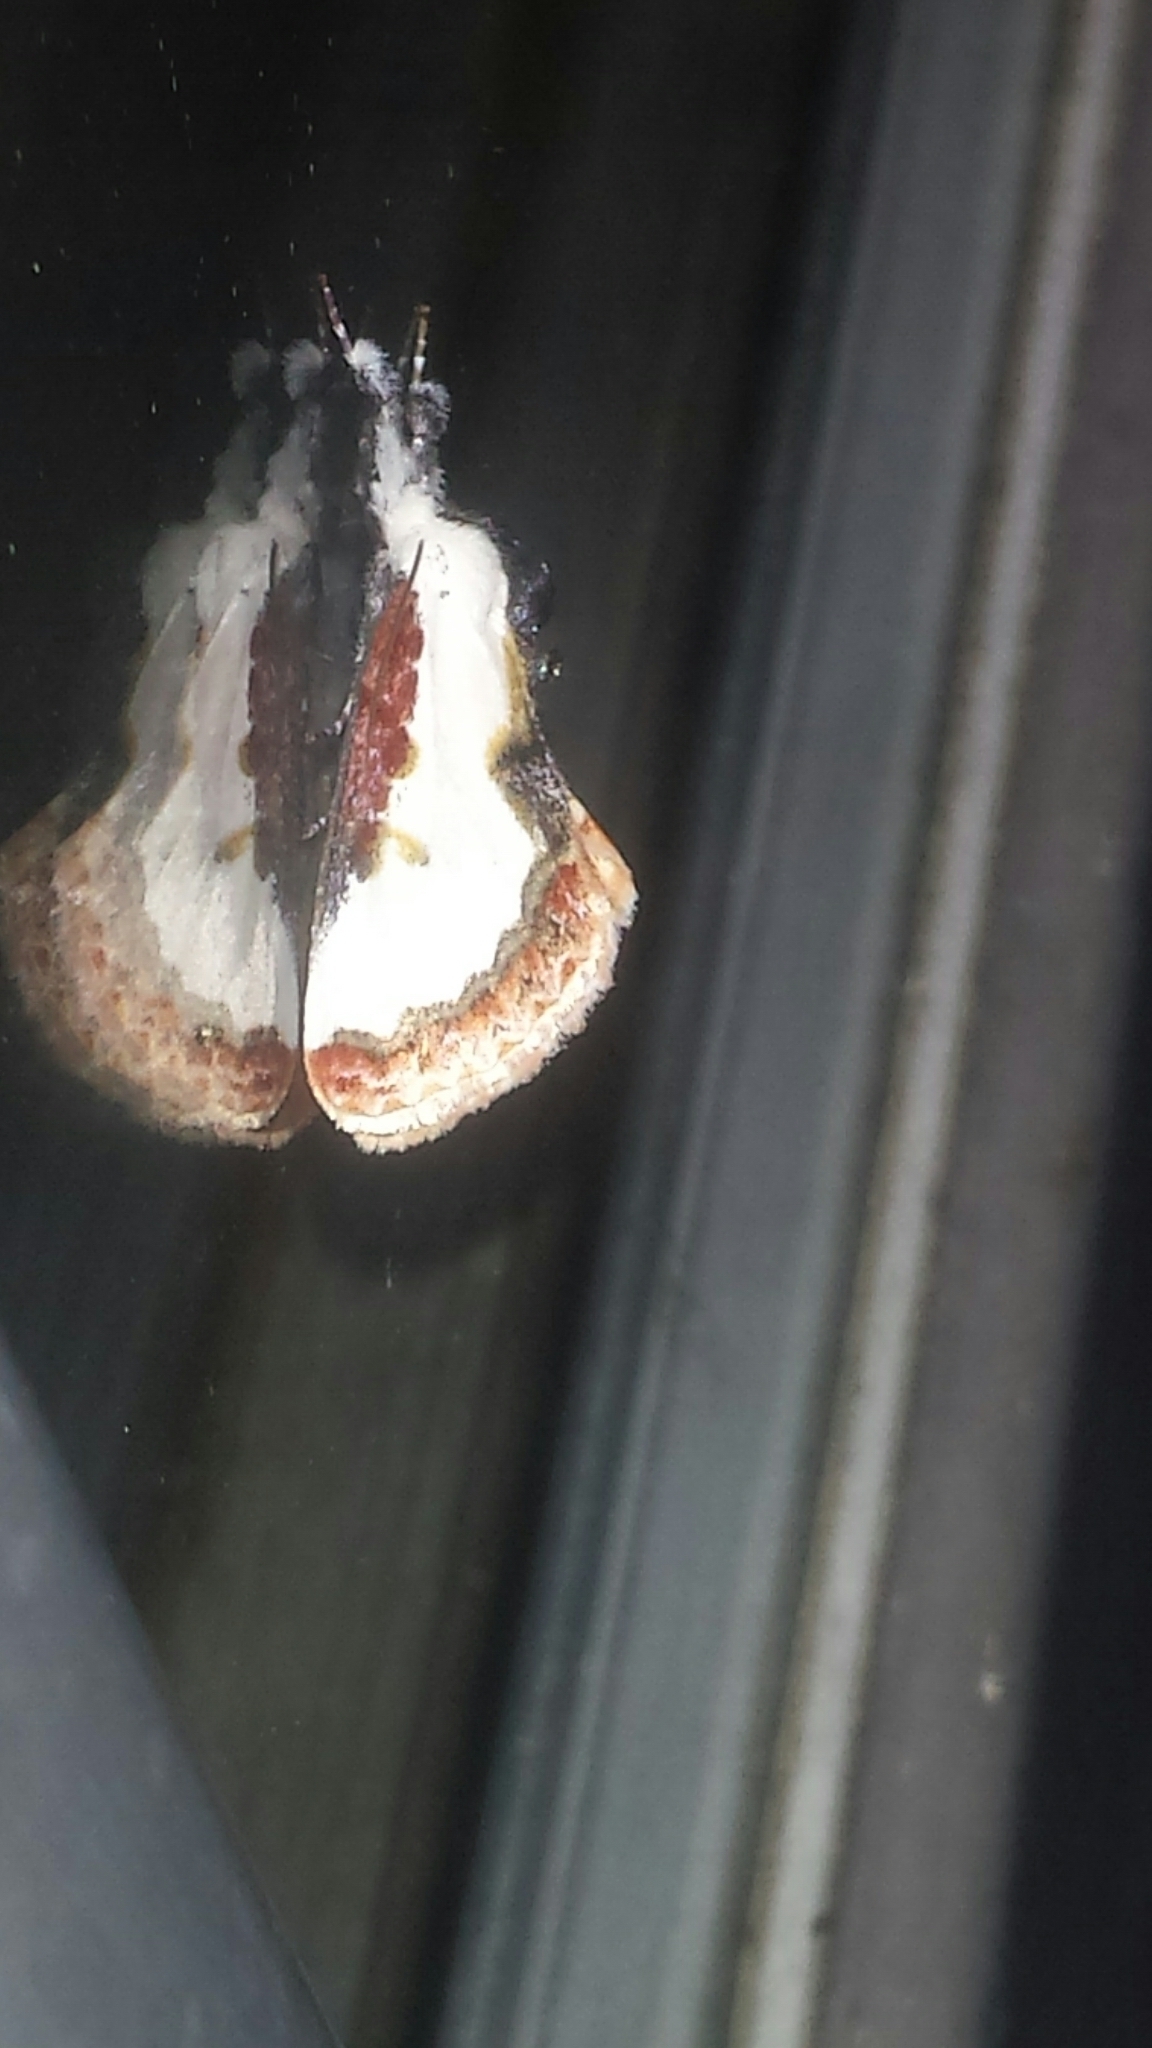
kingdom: Animalia
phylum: Arthropoda
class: Insecta
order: Lepidoptera
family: Noctuidae
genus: Eudryas
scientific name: Eudryas unio
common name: Pearly wood-nymph
